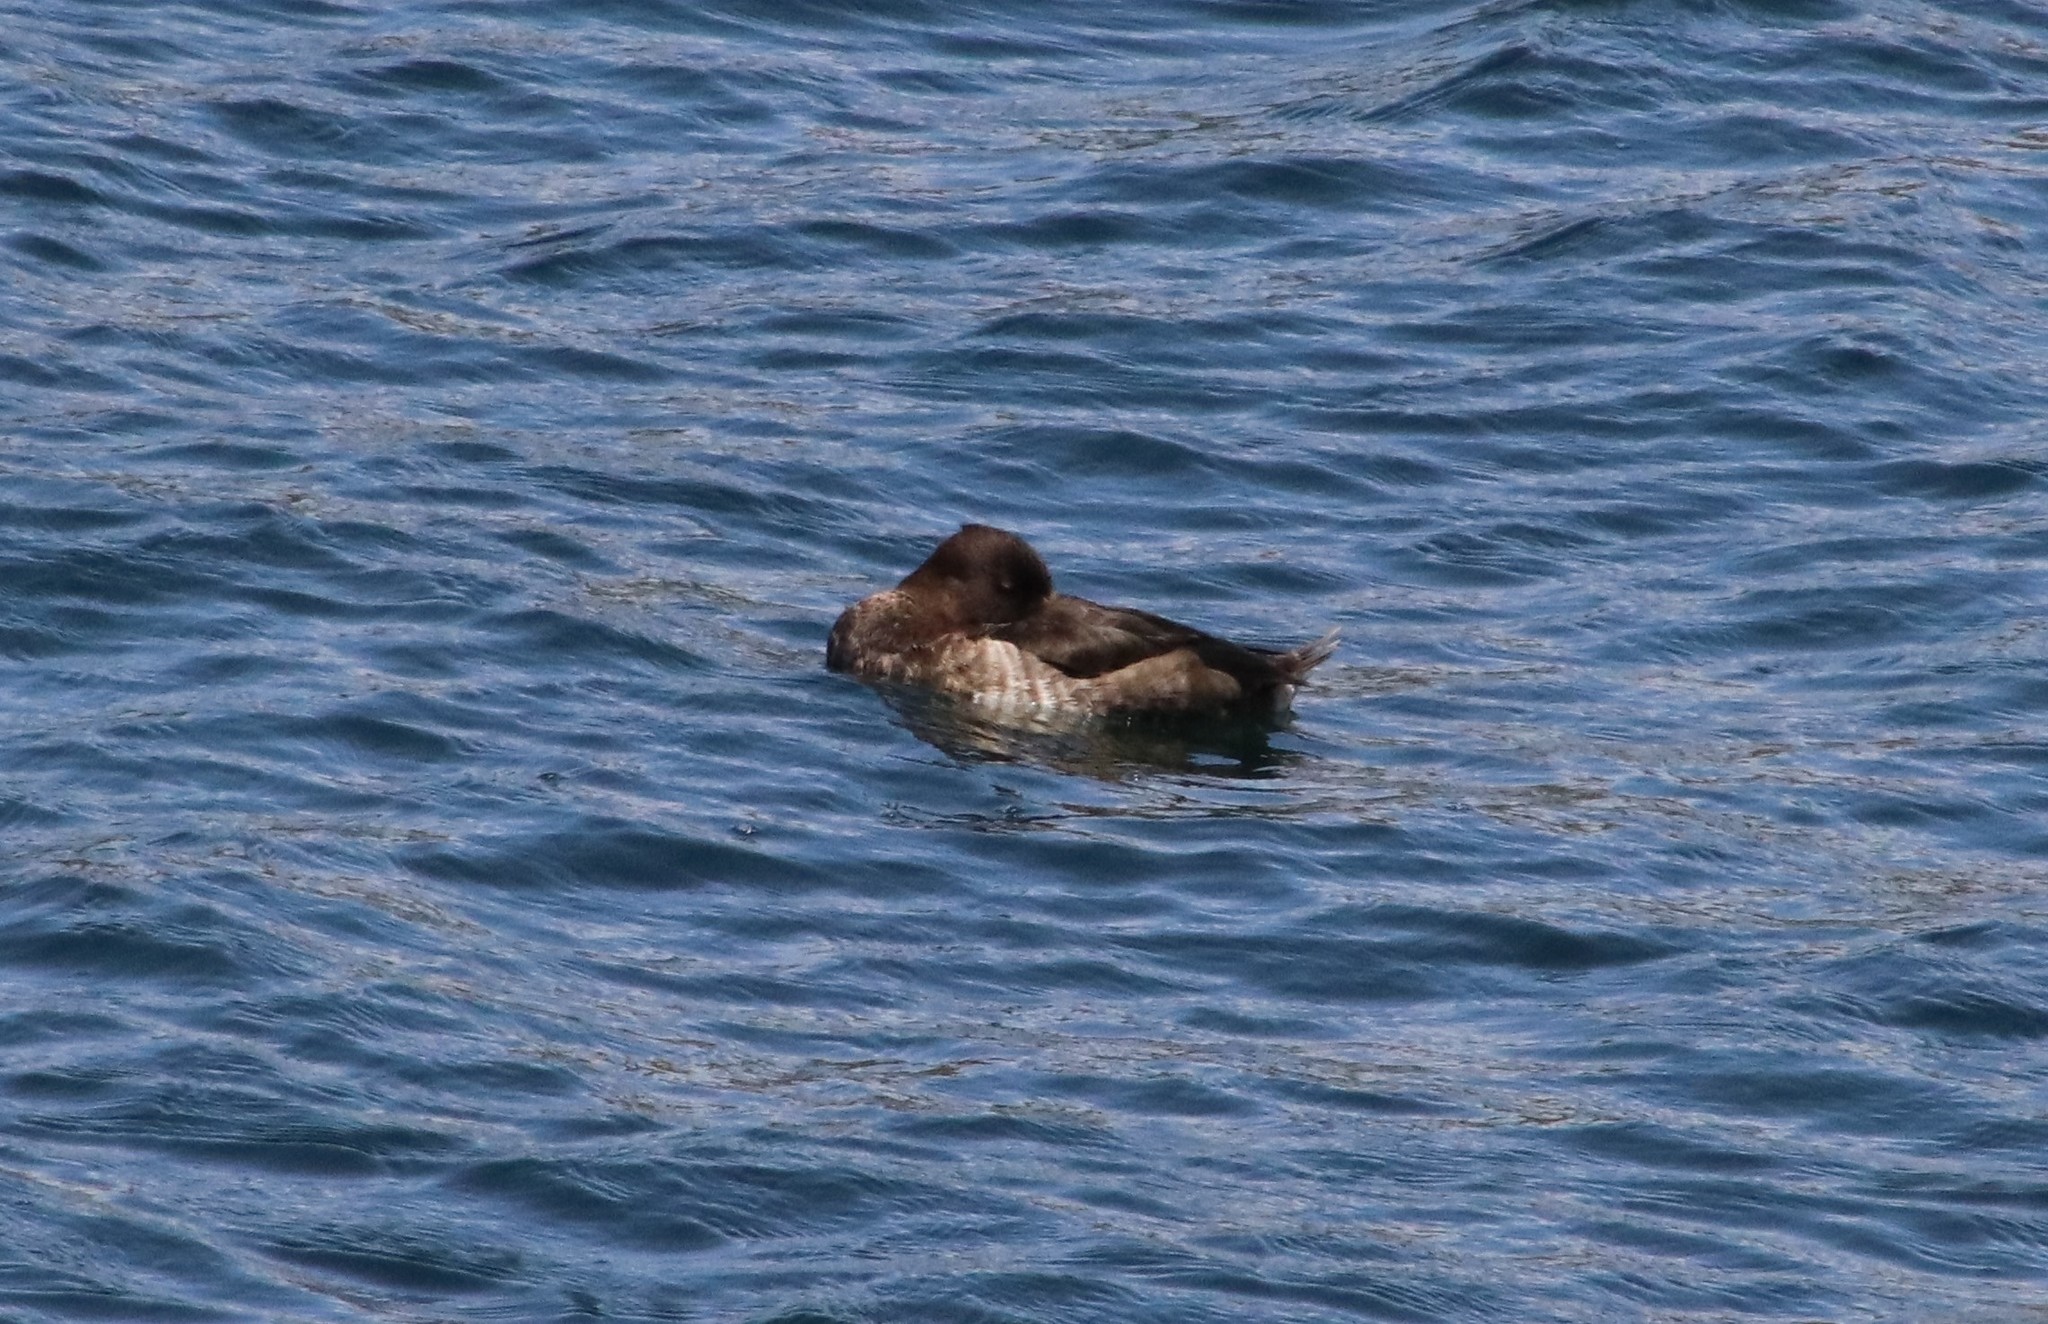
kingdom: Animalia
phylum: Chordata
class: Aves
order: Anseriformes
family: Anatidae
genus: Aythya
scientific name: Aythya fuligula
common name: Tufted duck
